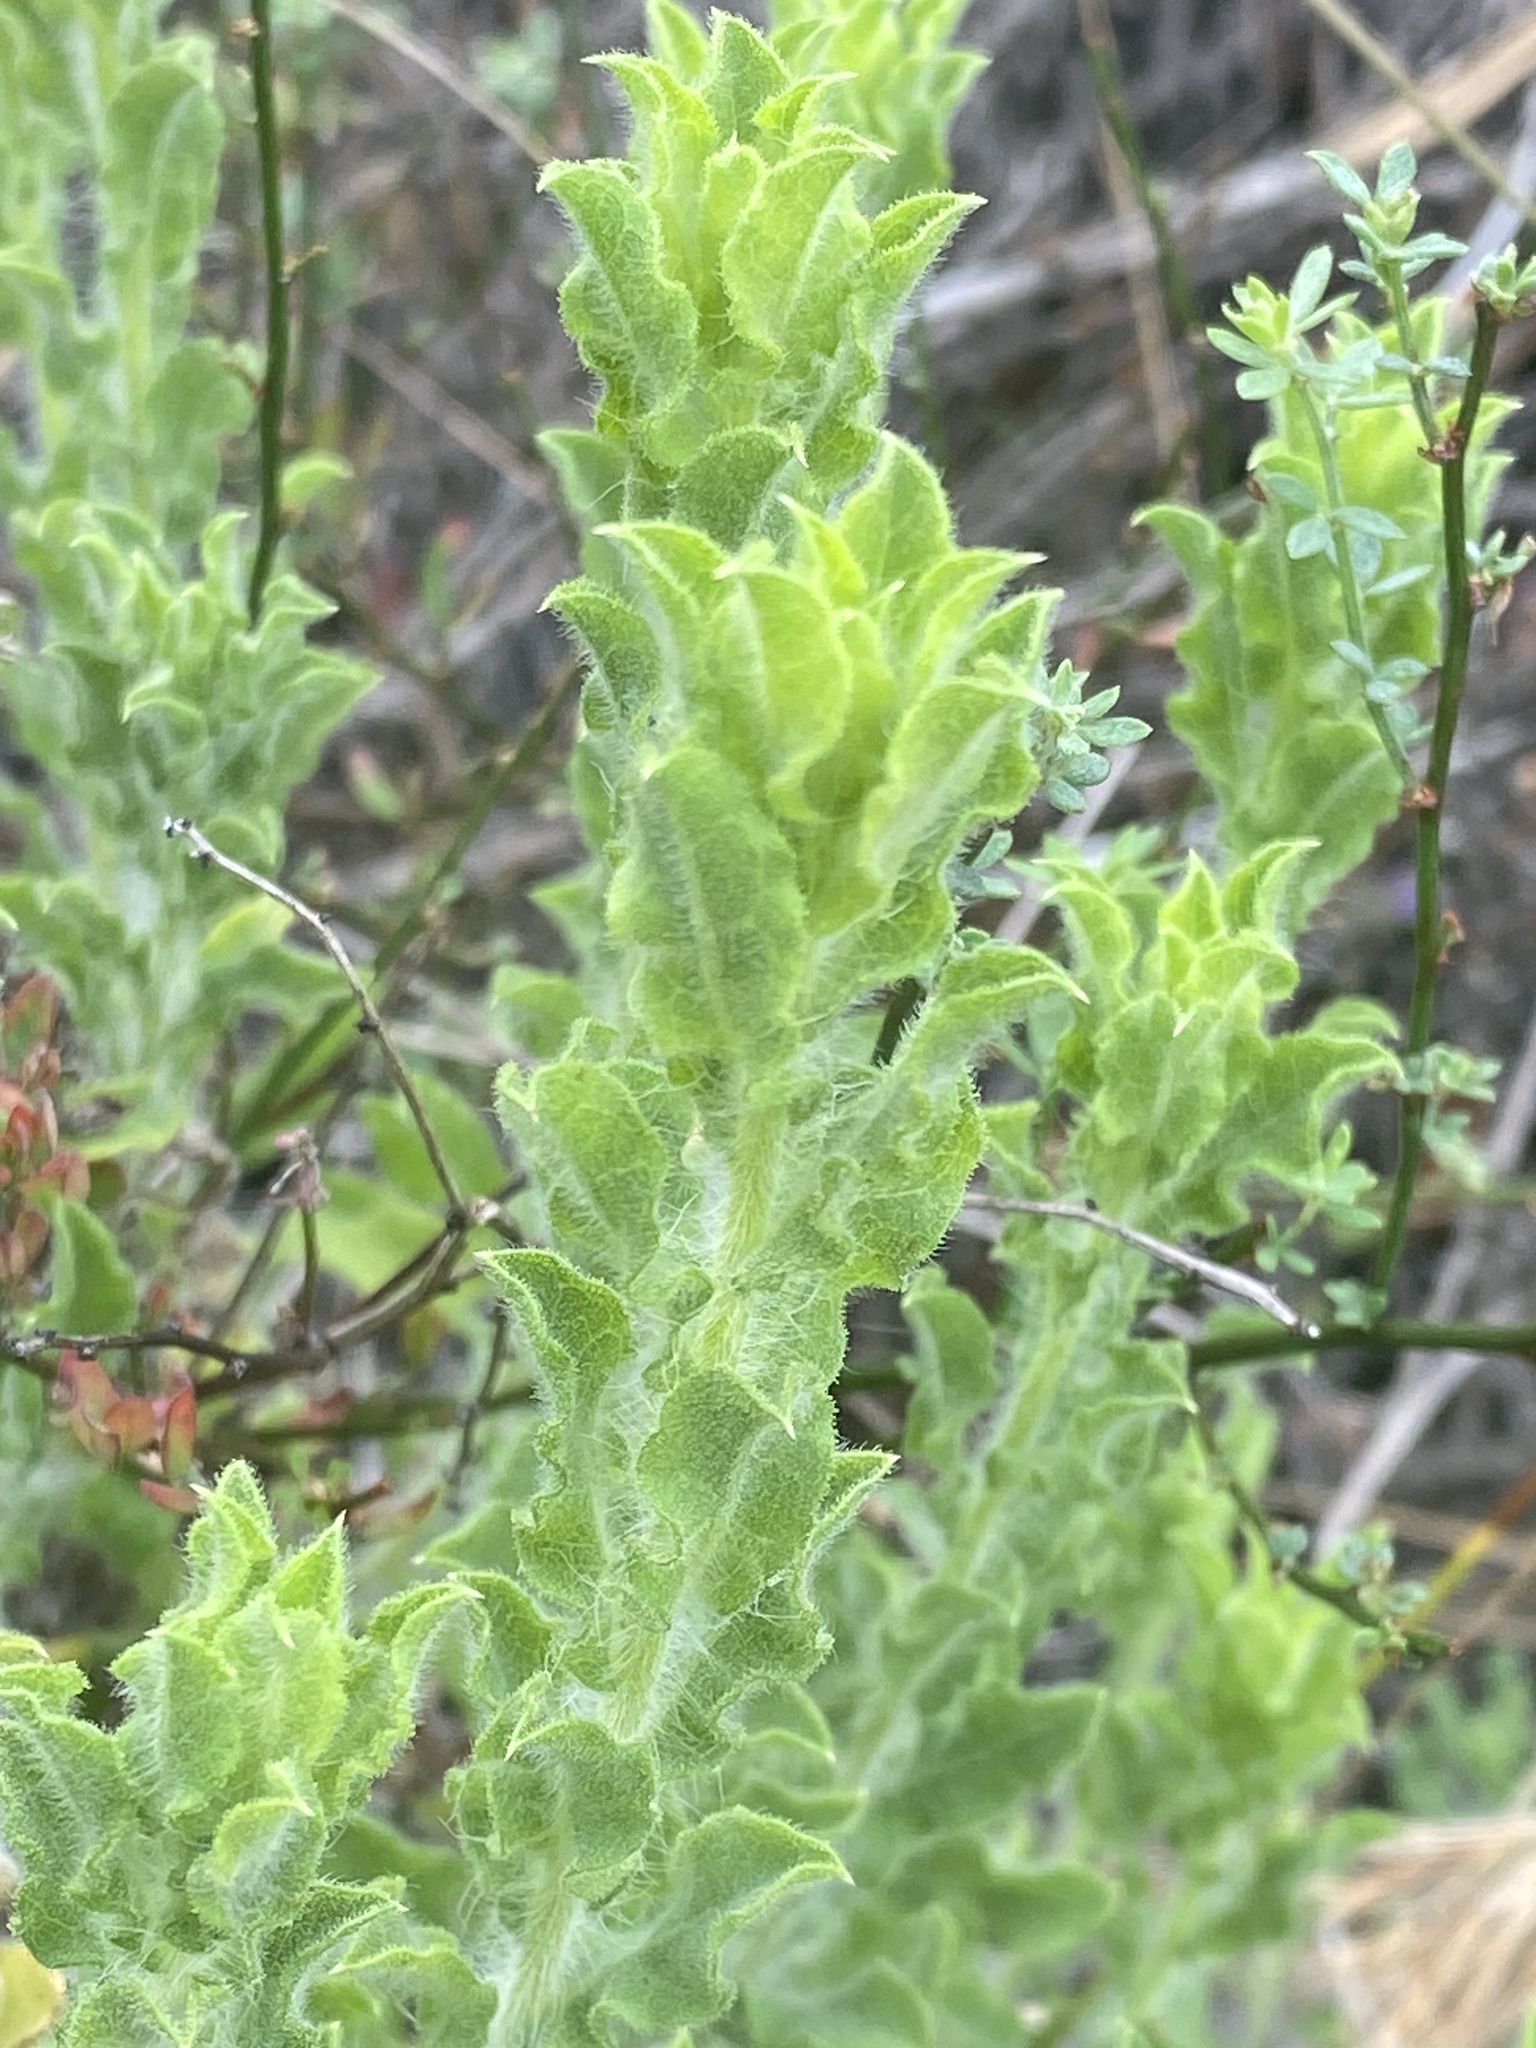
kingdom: Plantae
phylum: Tracheophyta
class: Magnoliopsida
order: Asterales
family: Asteraceae
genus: Heterotheca
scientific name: Heterotheca sessiliflora
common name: Sessile-flower golden-aster
